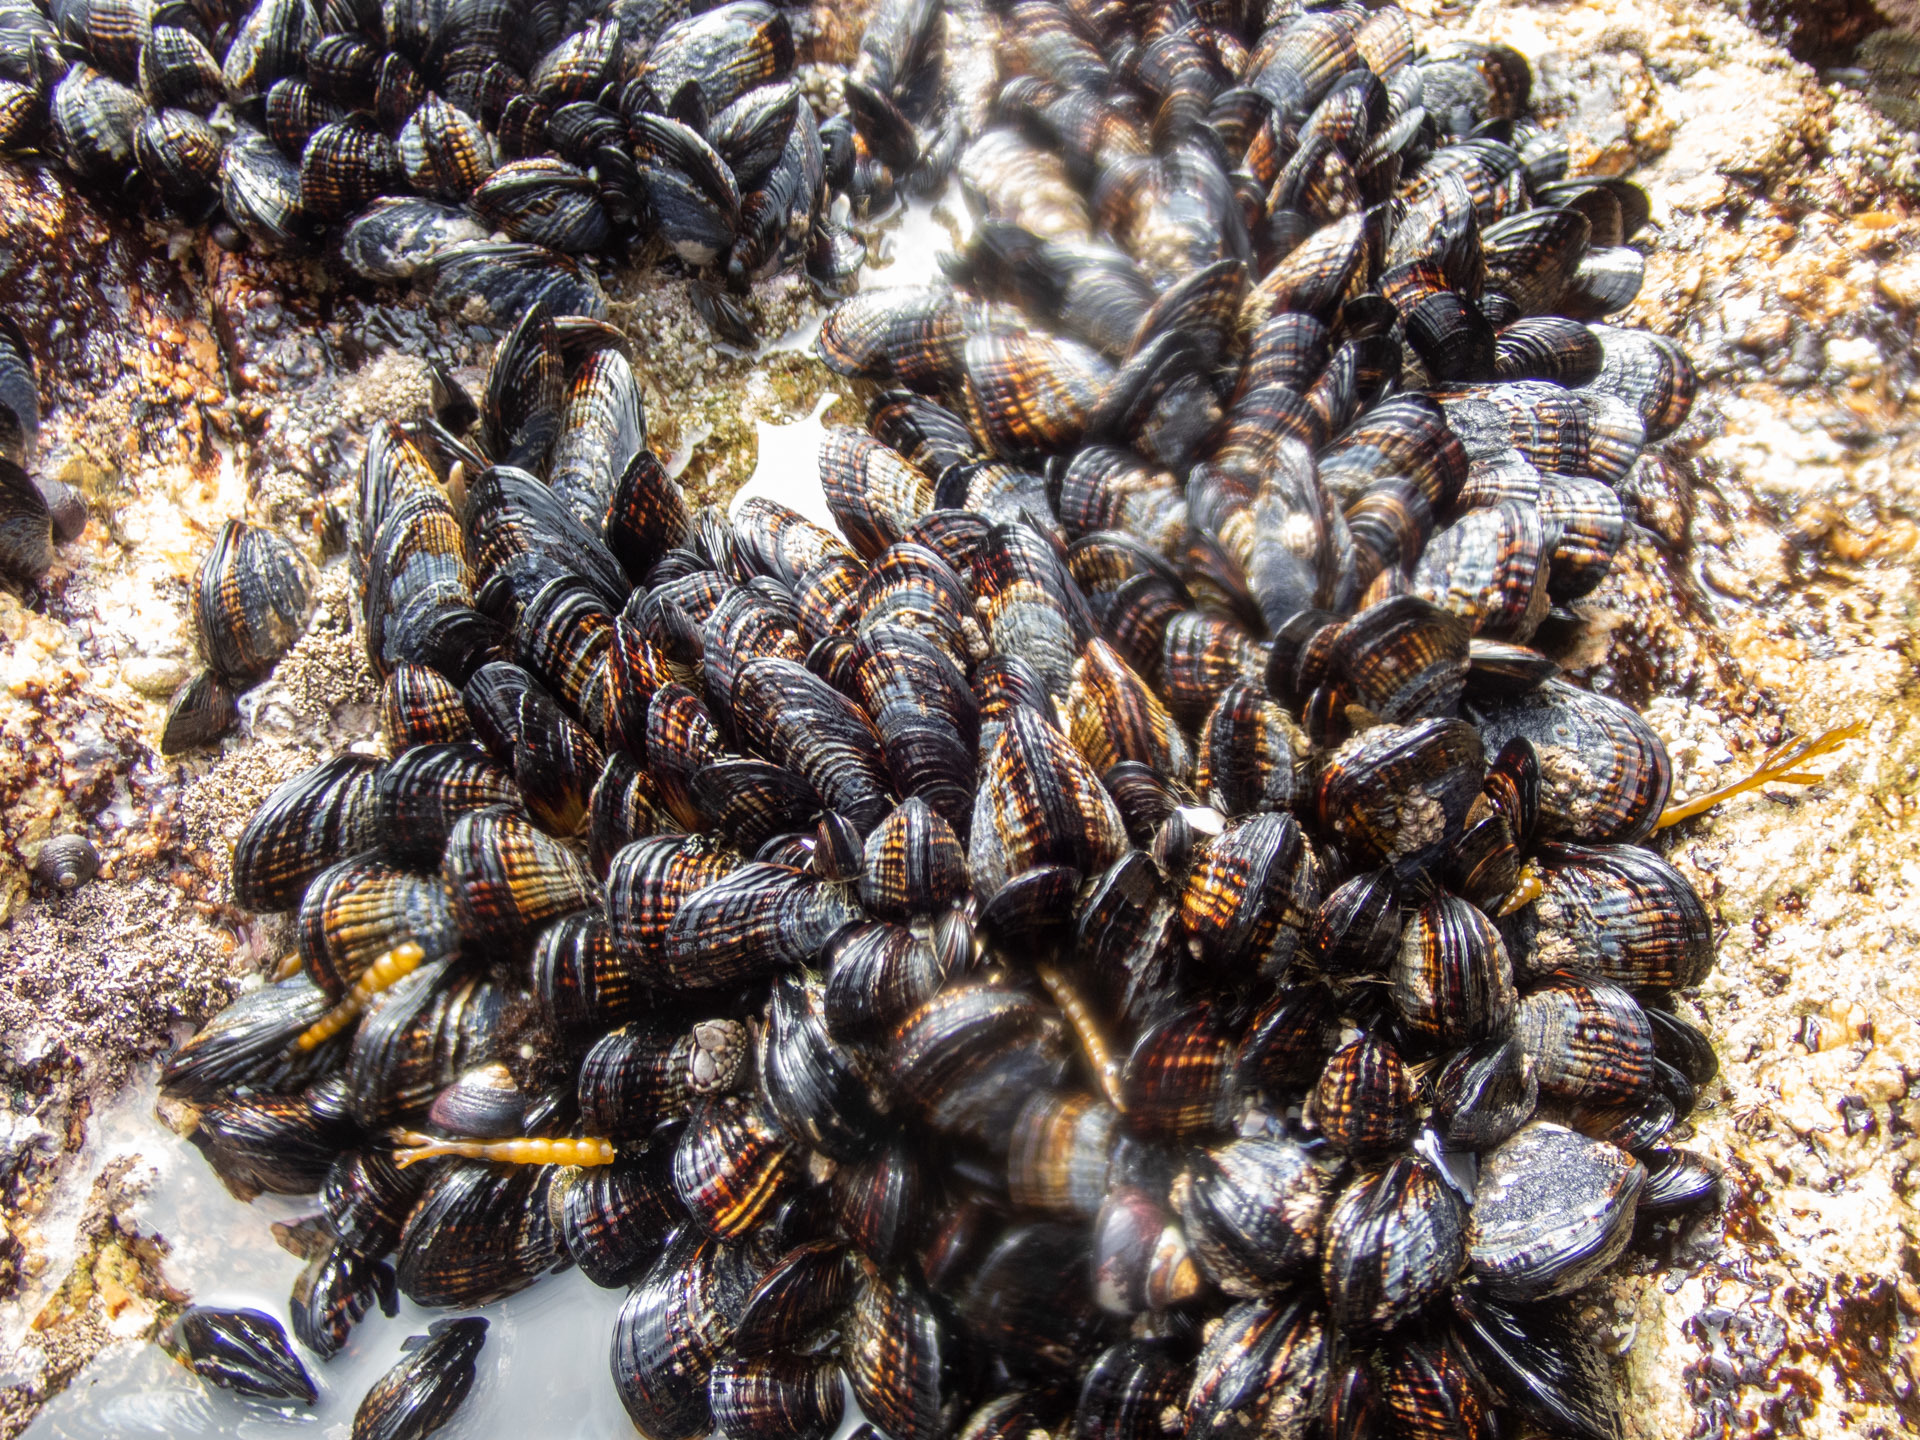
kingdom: Animalia
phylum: Mollusca
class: Bivalvia
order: Mytilida
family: Mytilidae
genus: Mytilus
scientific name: Mytilus californianus
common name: California mussel
